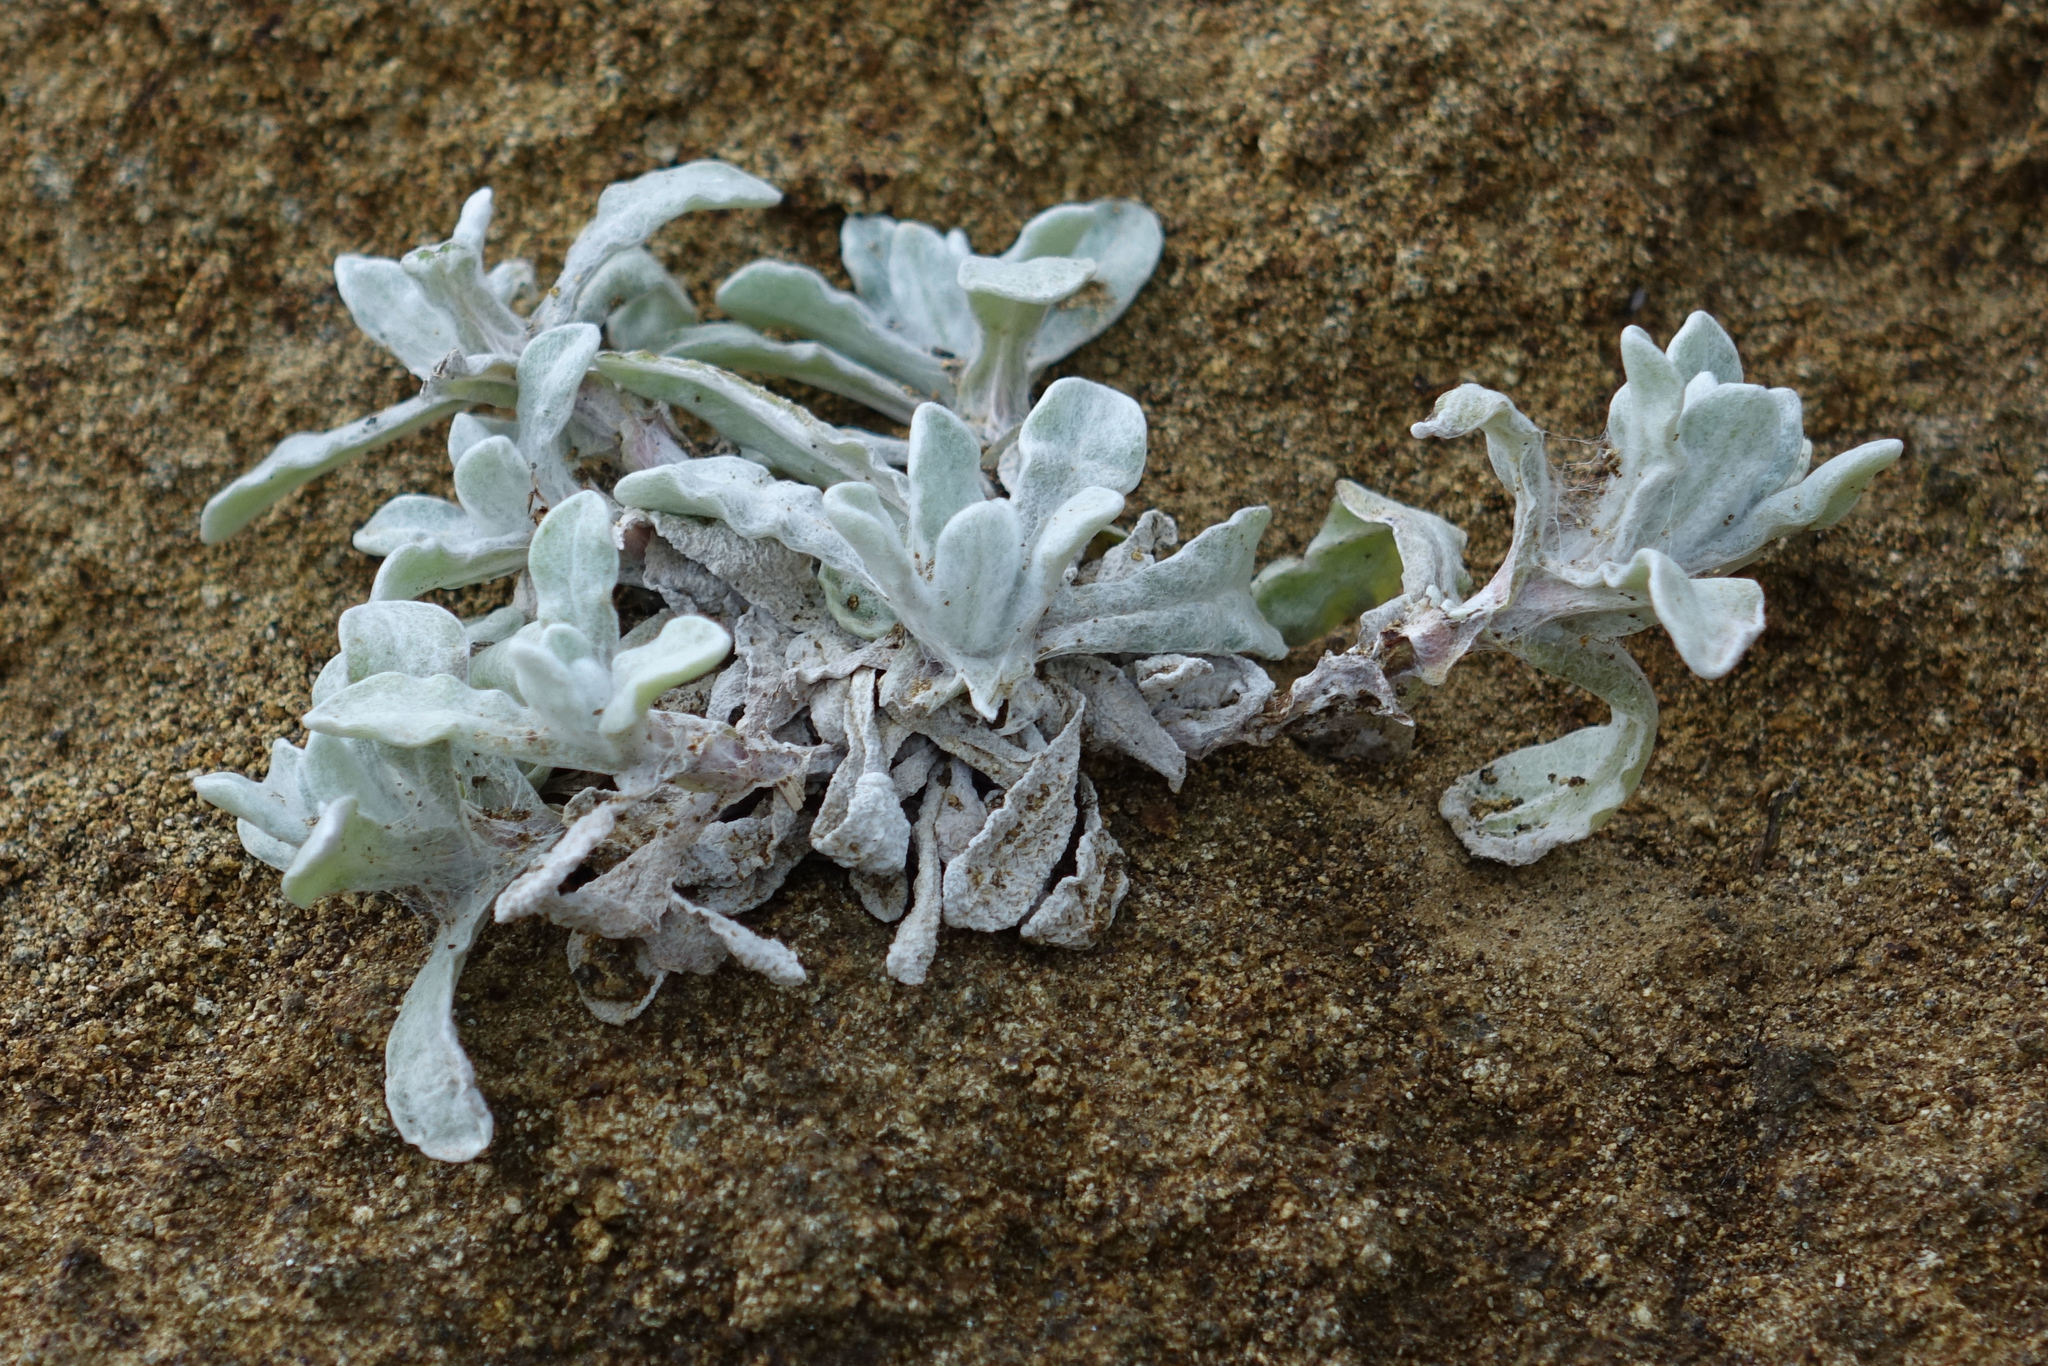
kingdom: Plantae
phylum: Tracheophyta
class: Magnoliopsida
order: Asterales
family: Asteraceae
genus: Helichrysum
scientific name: Helichrysum luteoalbum
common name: Daisy
